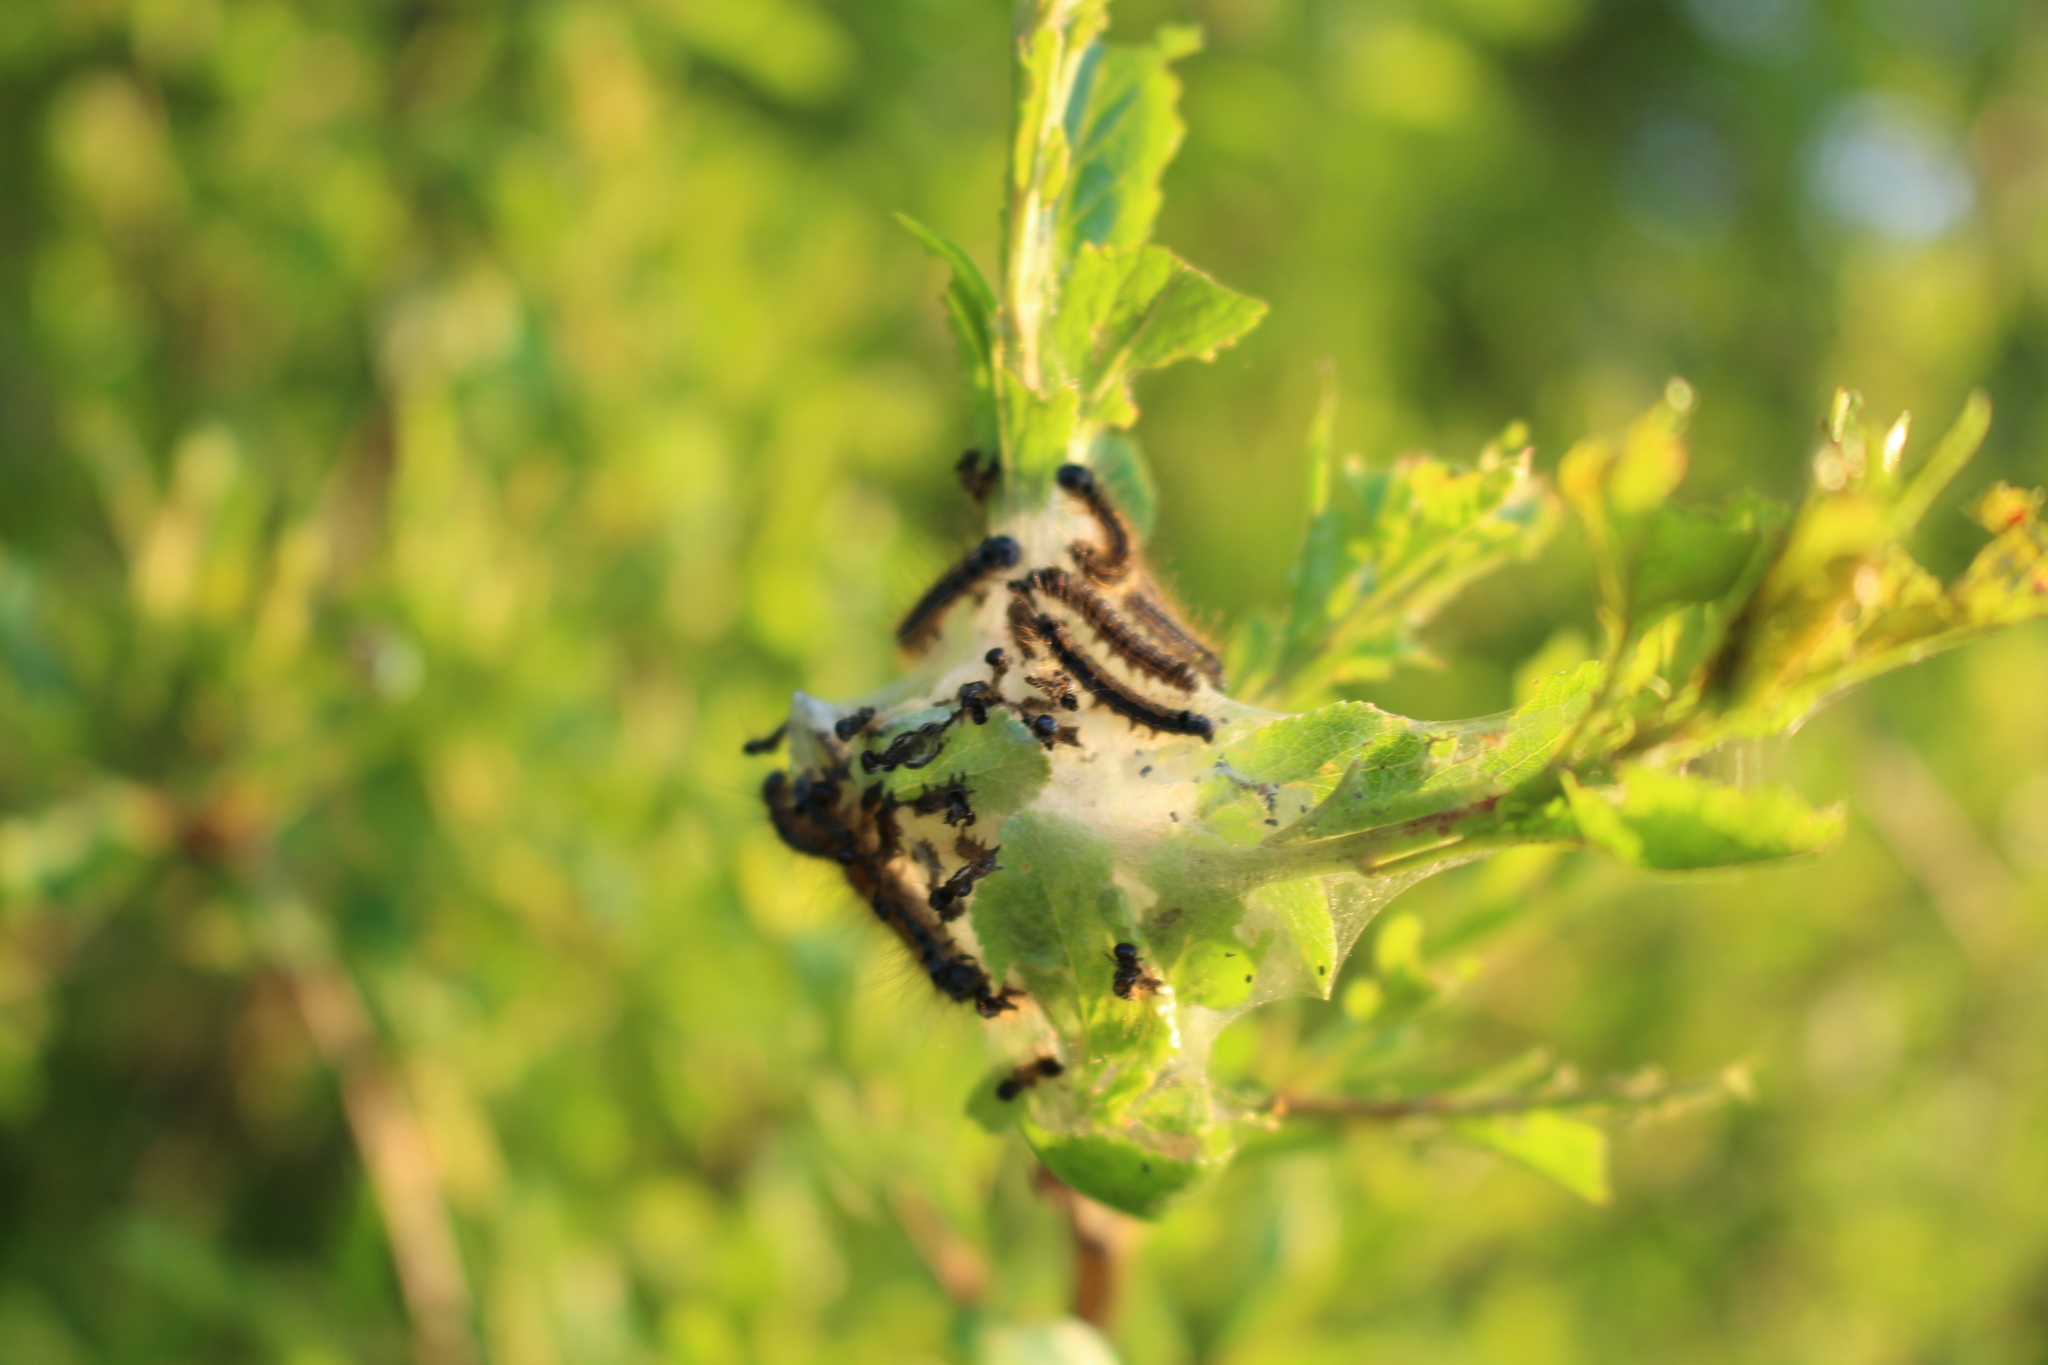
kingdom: Animalia
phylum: Arthropoda
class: Insecta
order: Lepidoptera
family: Lasiocampidae
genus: Malacosoma
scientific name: Malacosoma neustria
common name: The lackey
